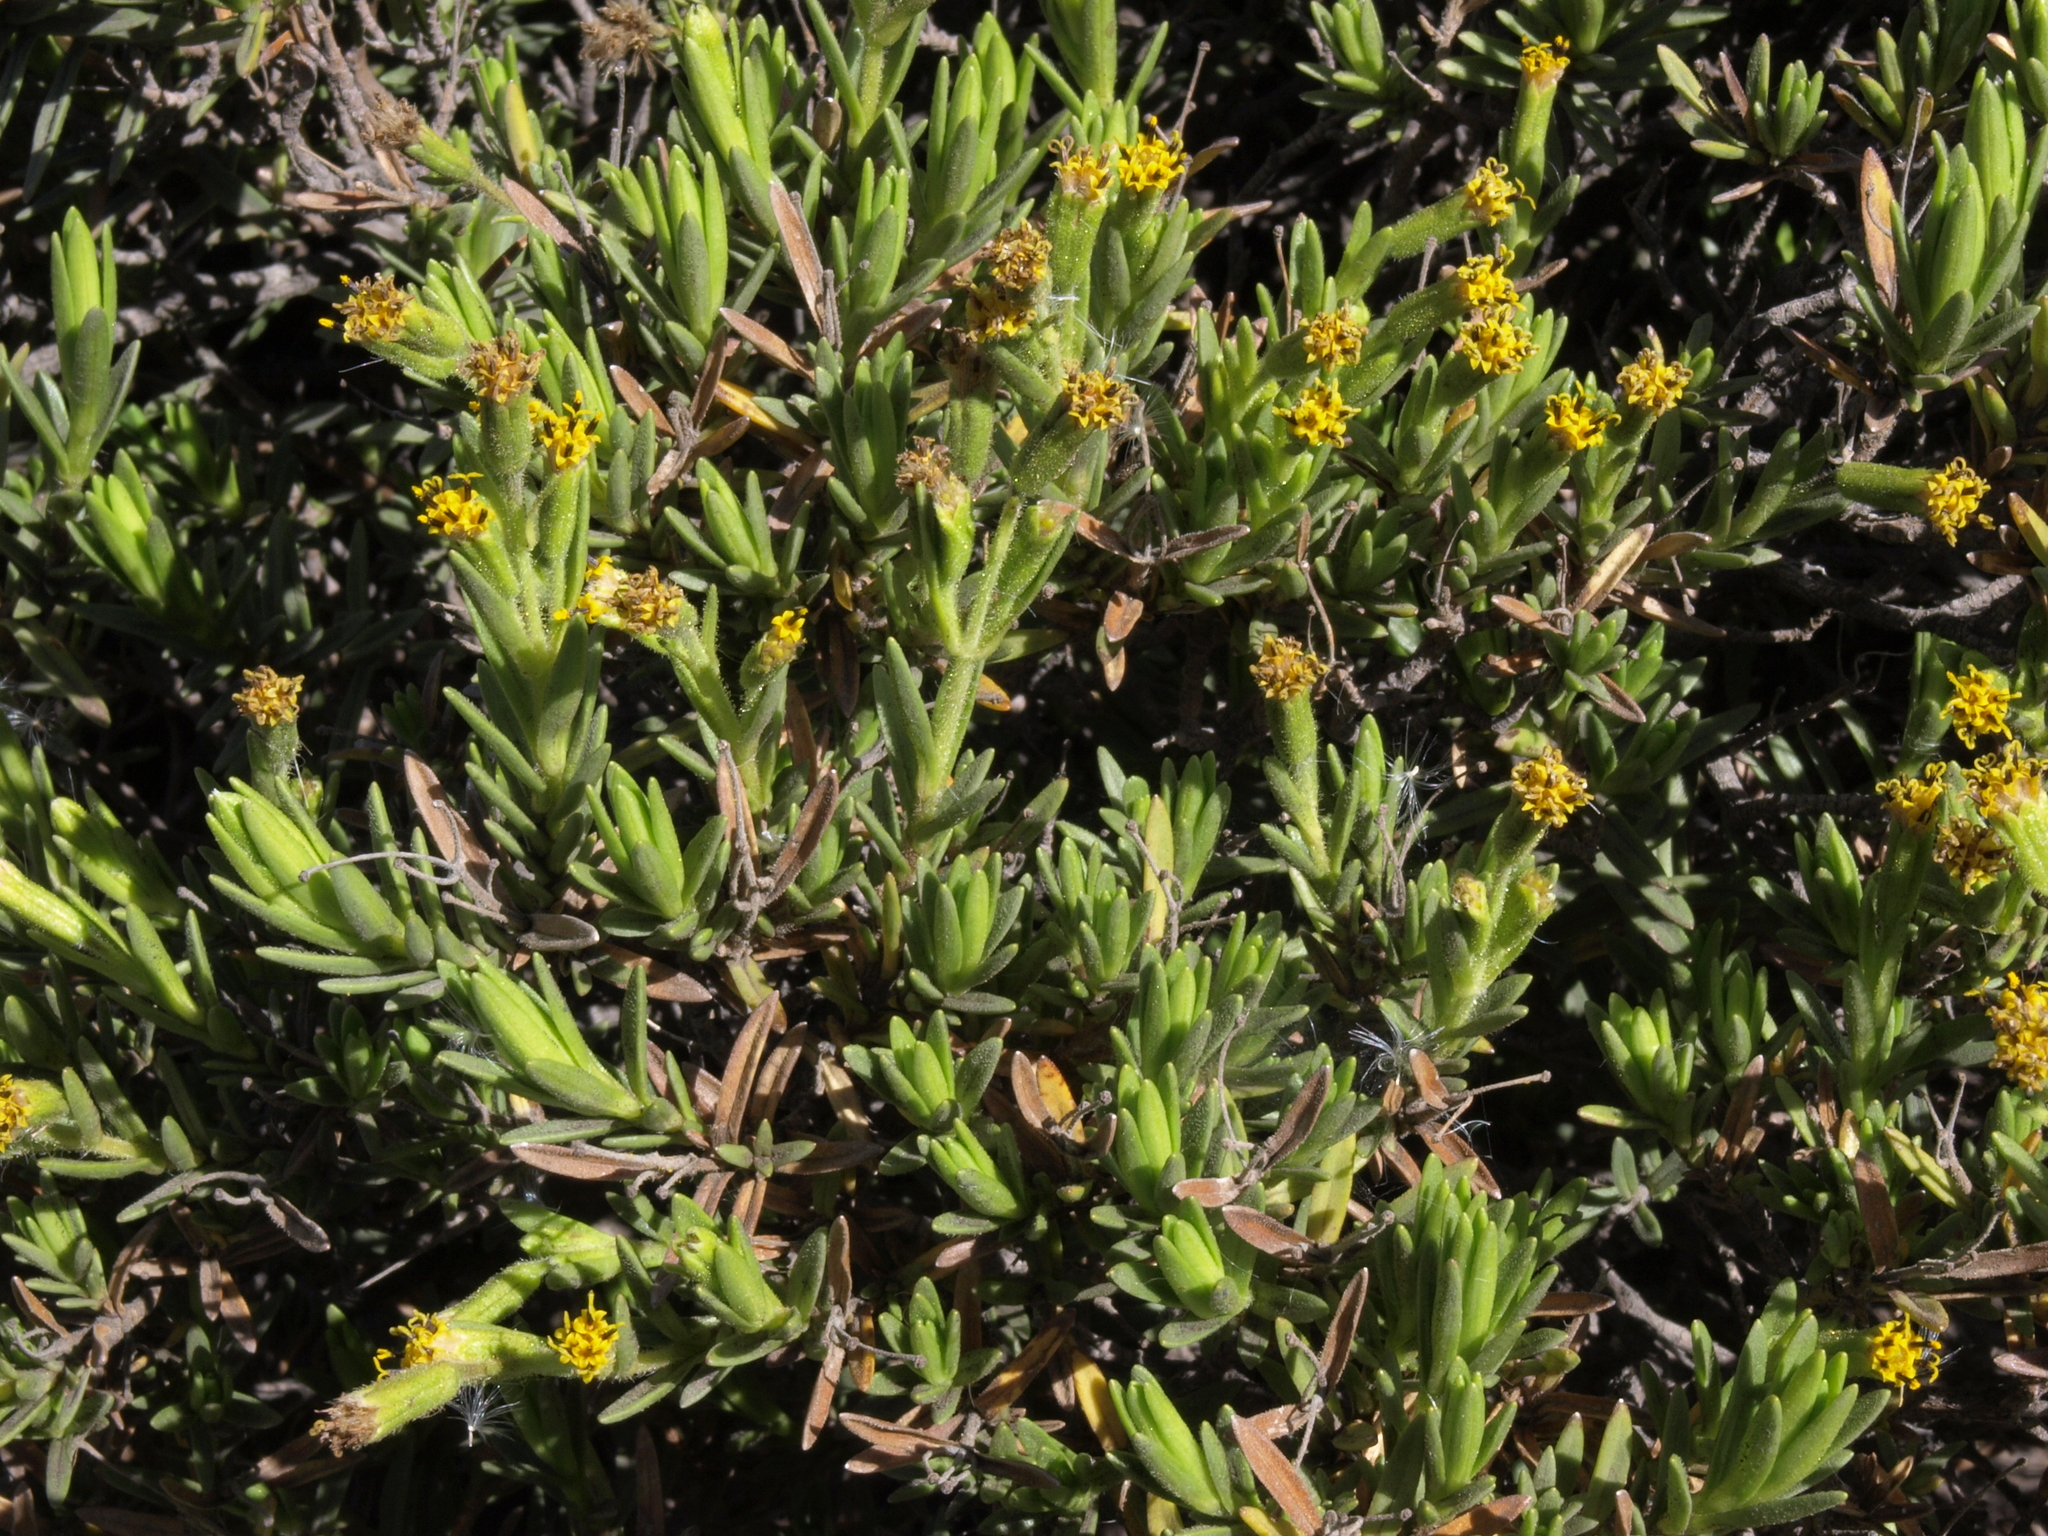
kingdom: Plantae
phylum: Tracheophyta
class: Magnoliopsida
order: Asterales
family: Asteraceae
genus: Dubautia
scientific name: Dubautia ciliolata
